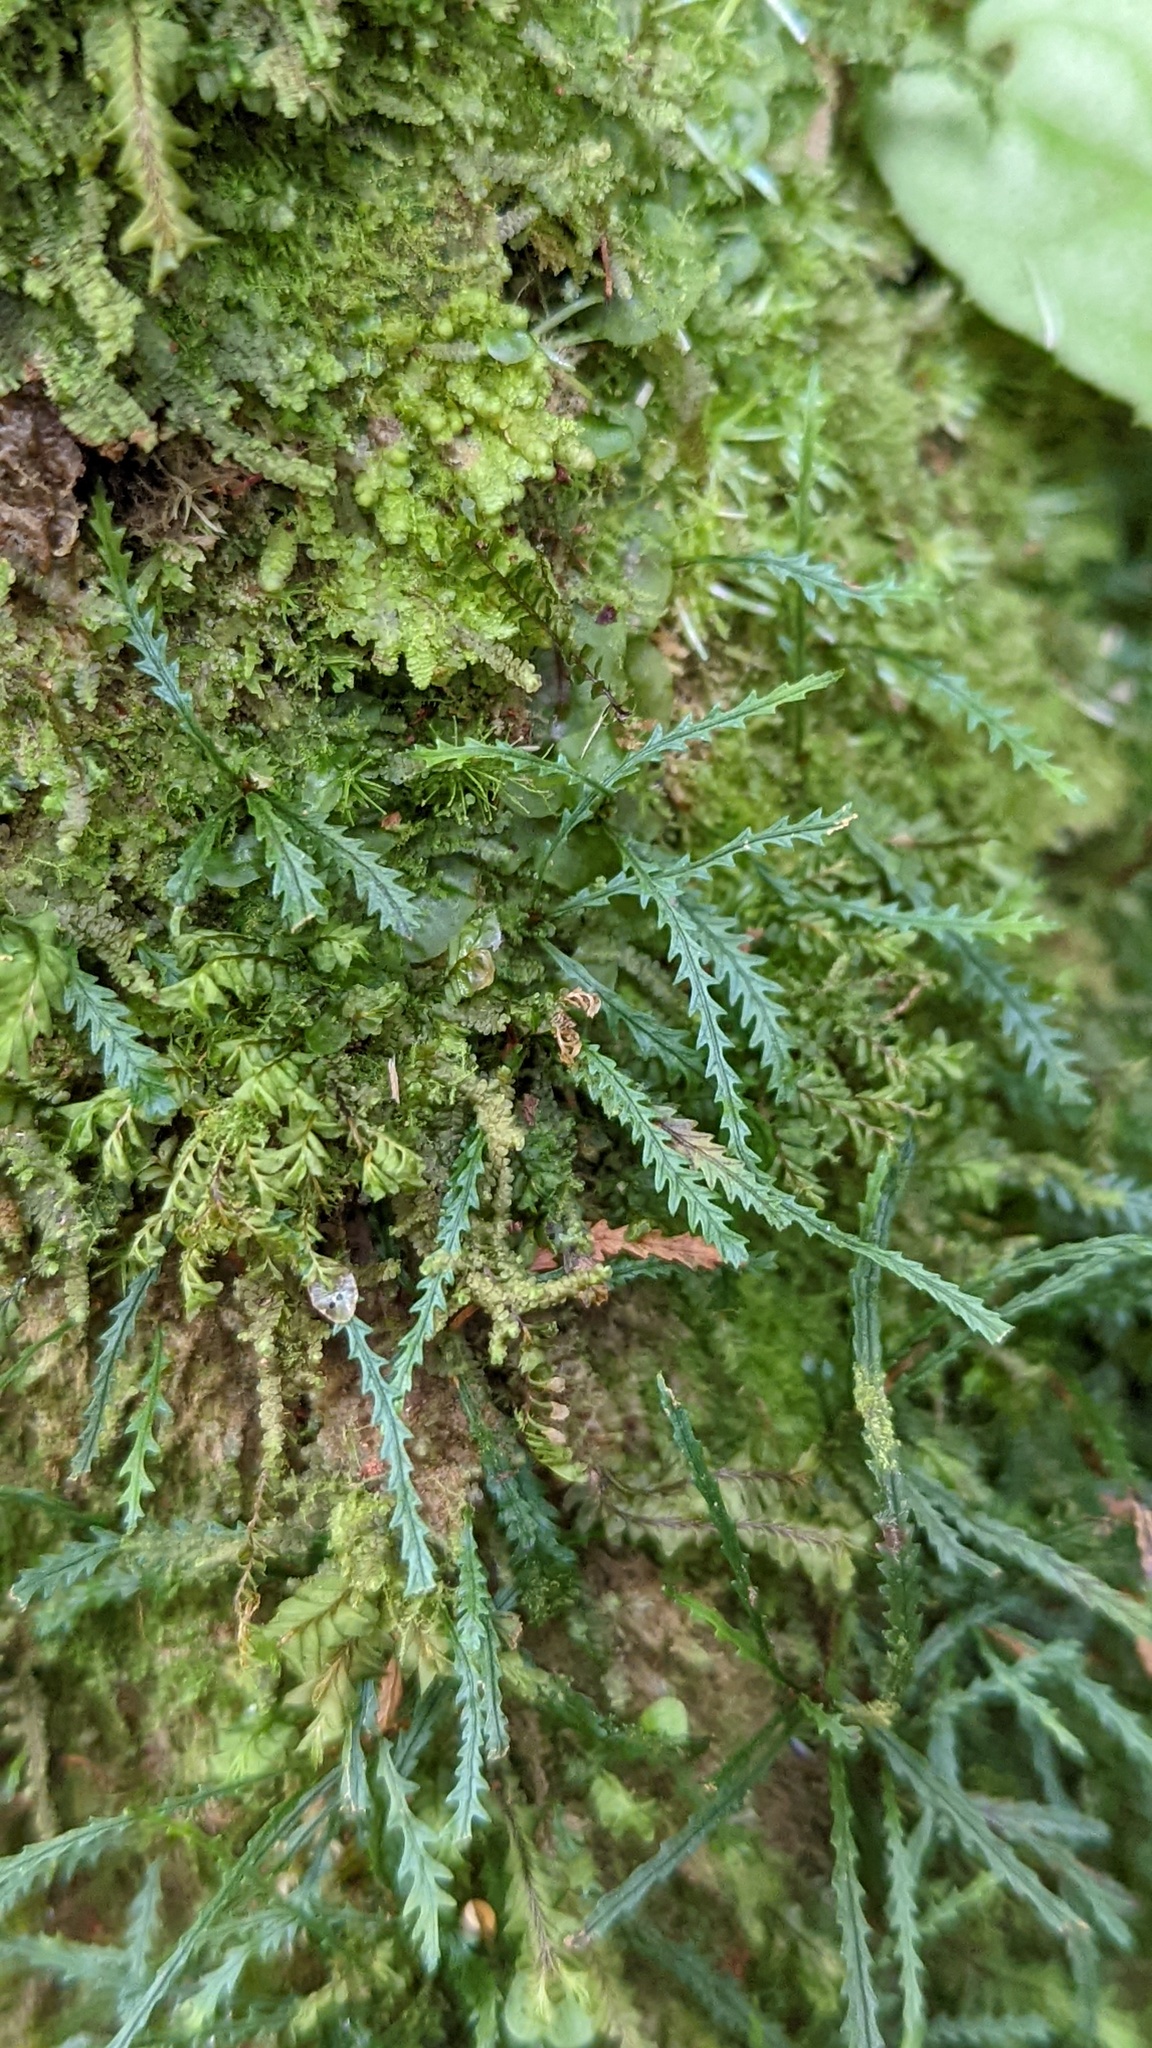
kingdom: Plantae
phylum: Tracheophyta
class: Polypodiopsida
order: Polypodiales
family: Polypodiaceae
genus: Cochlidium
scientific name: Cochlidium serrulatum
